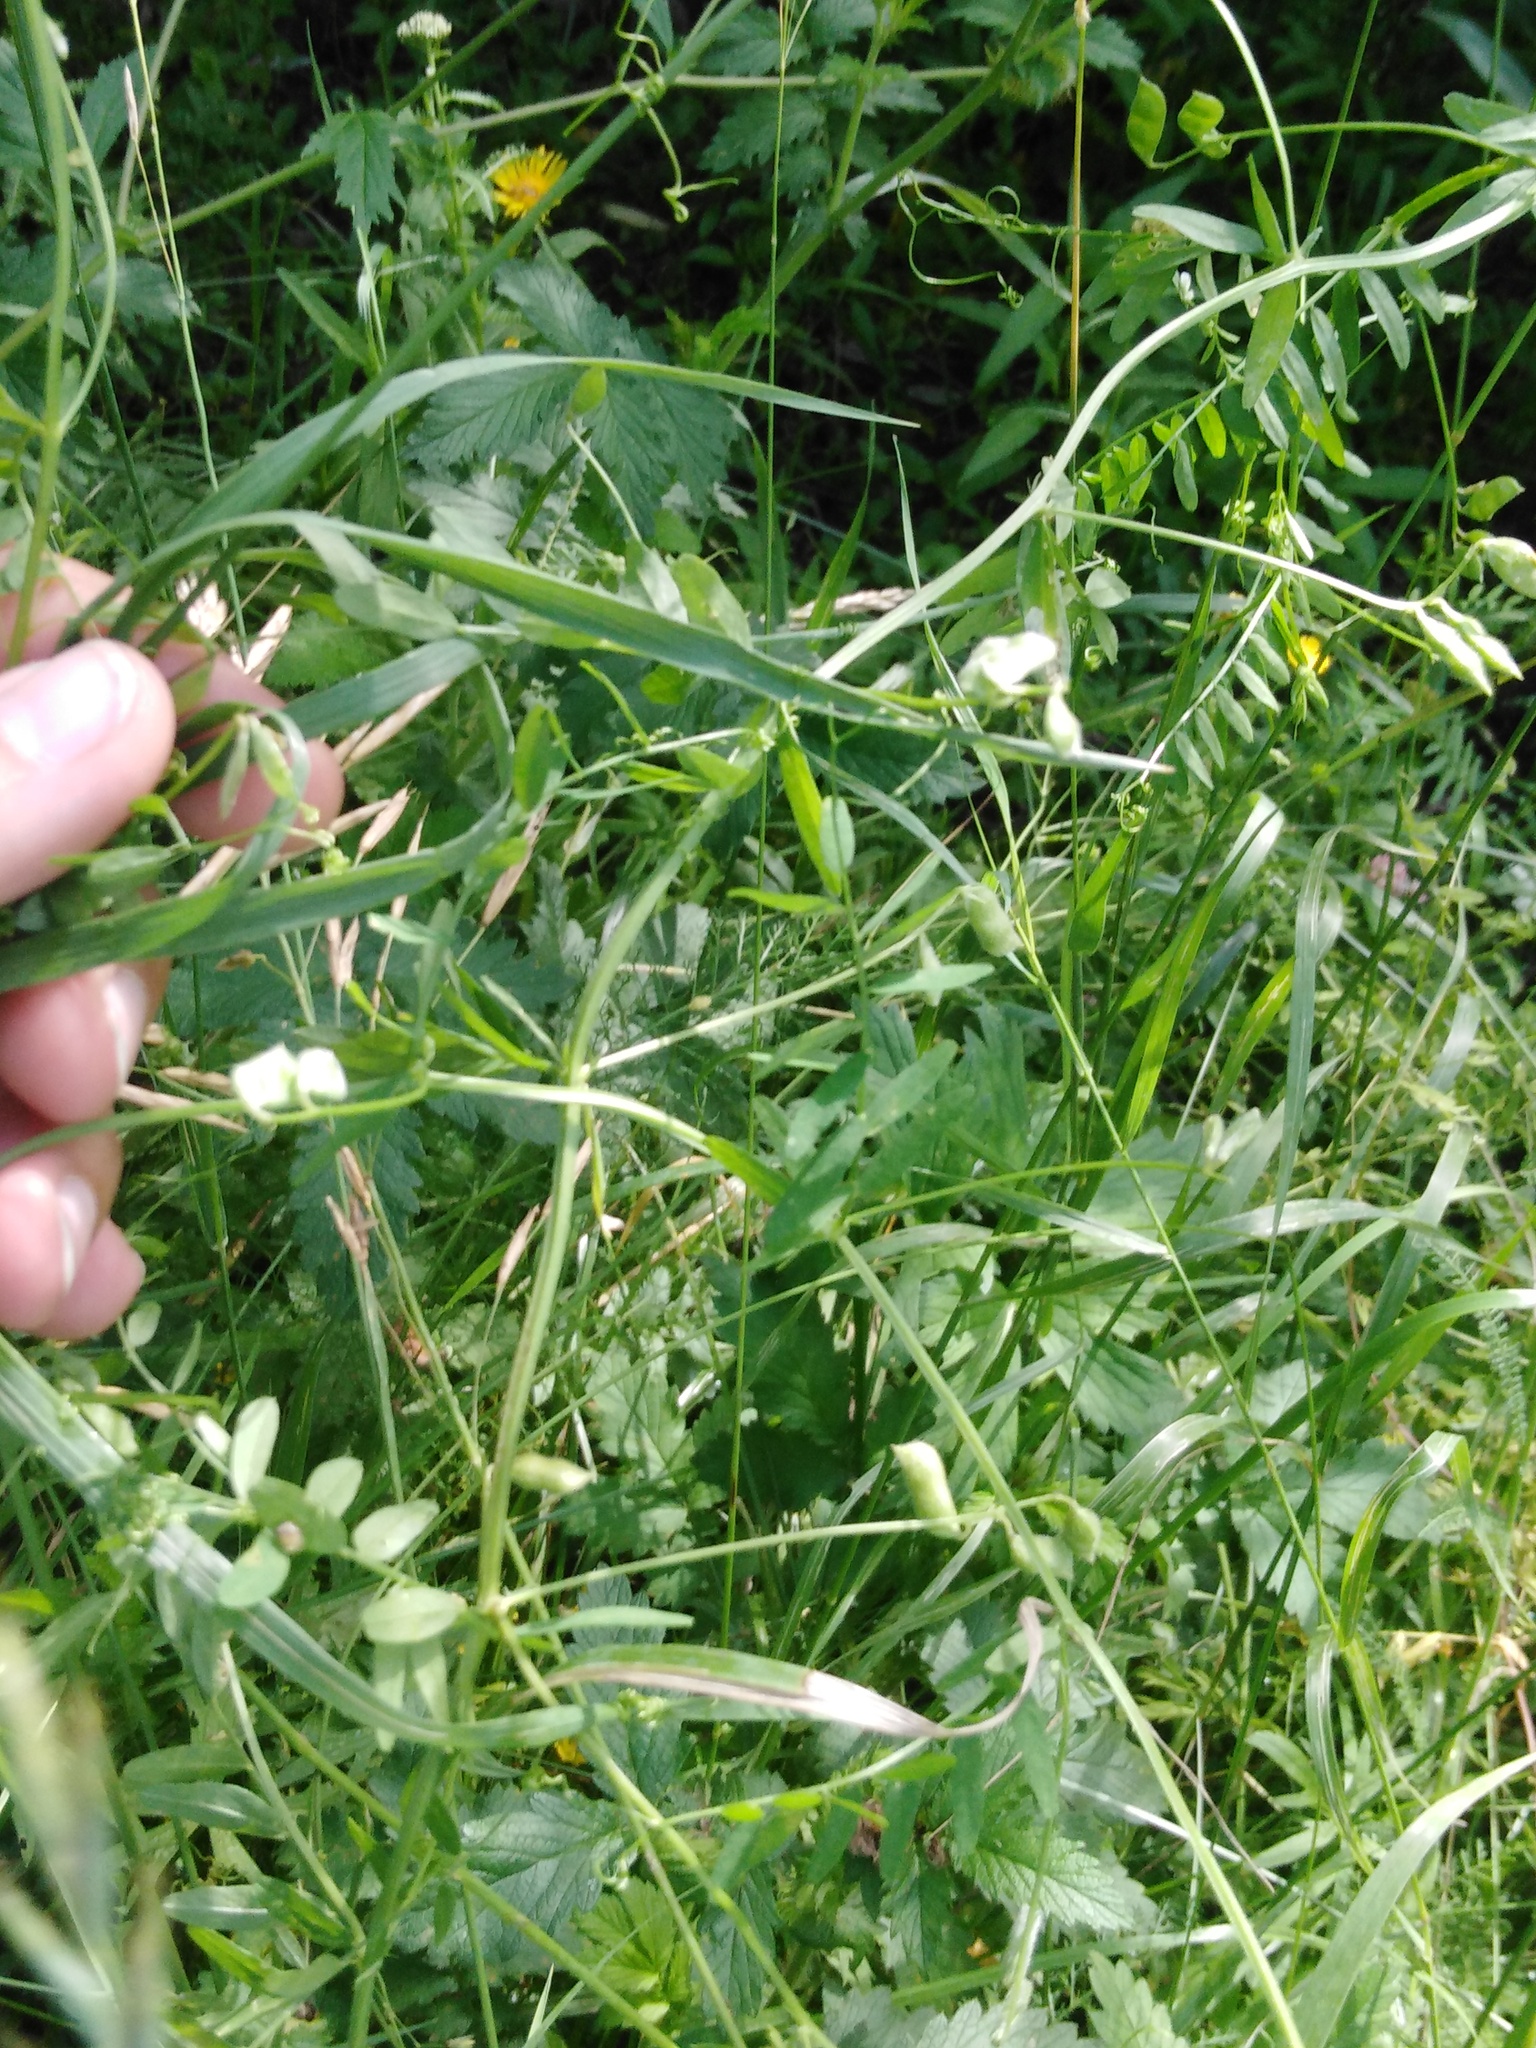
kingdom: Plantae
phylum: Tracheophyta
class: Magnoliopsida
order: Fabales
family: Fabaceae
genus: Vicia
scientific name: Vicia hirsuta
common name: Tiny vetch
